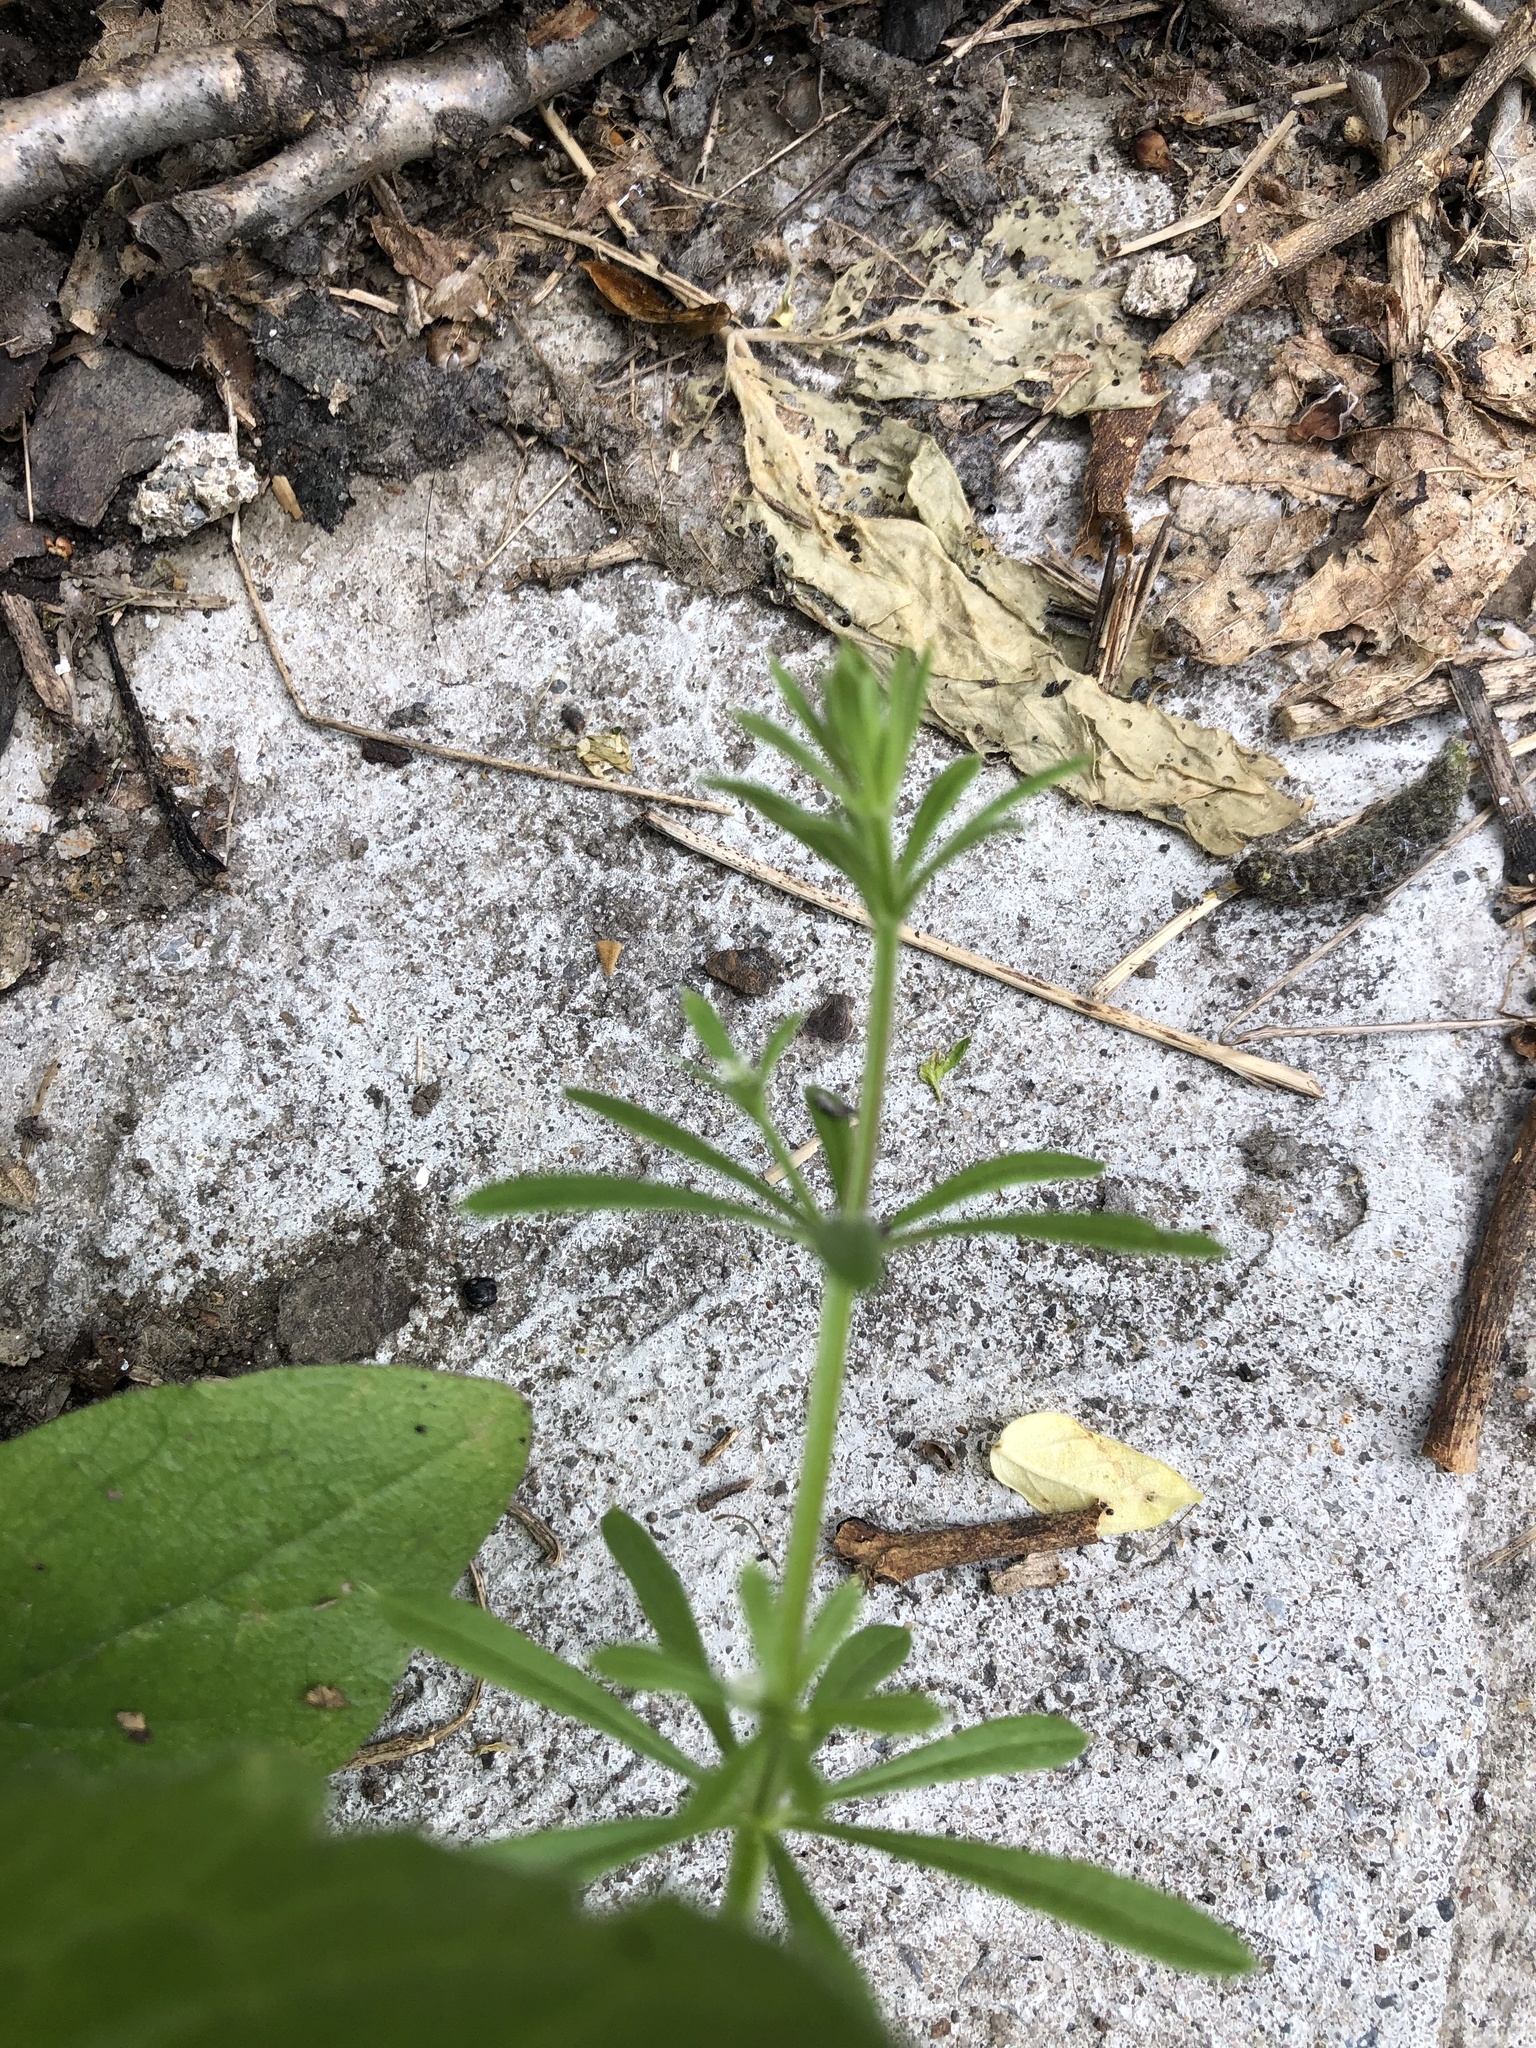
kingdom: Plantae
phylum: Tracheophyta
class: Magnoliopsida
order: Gentianales
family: Rubiaceae
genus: Galium
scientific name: Galium aparine
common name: Cleavers
